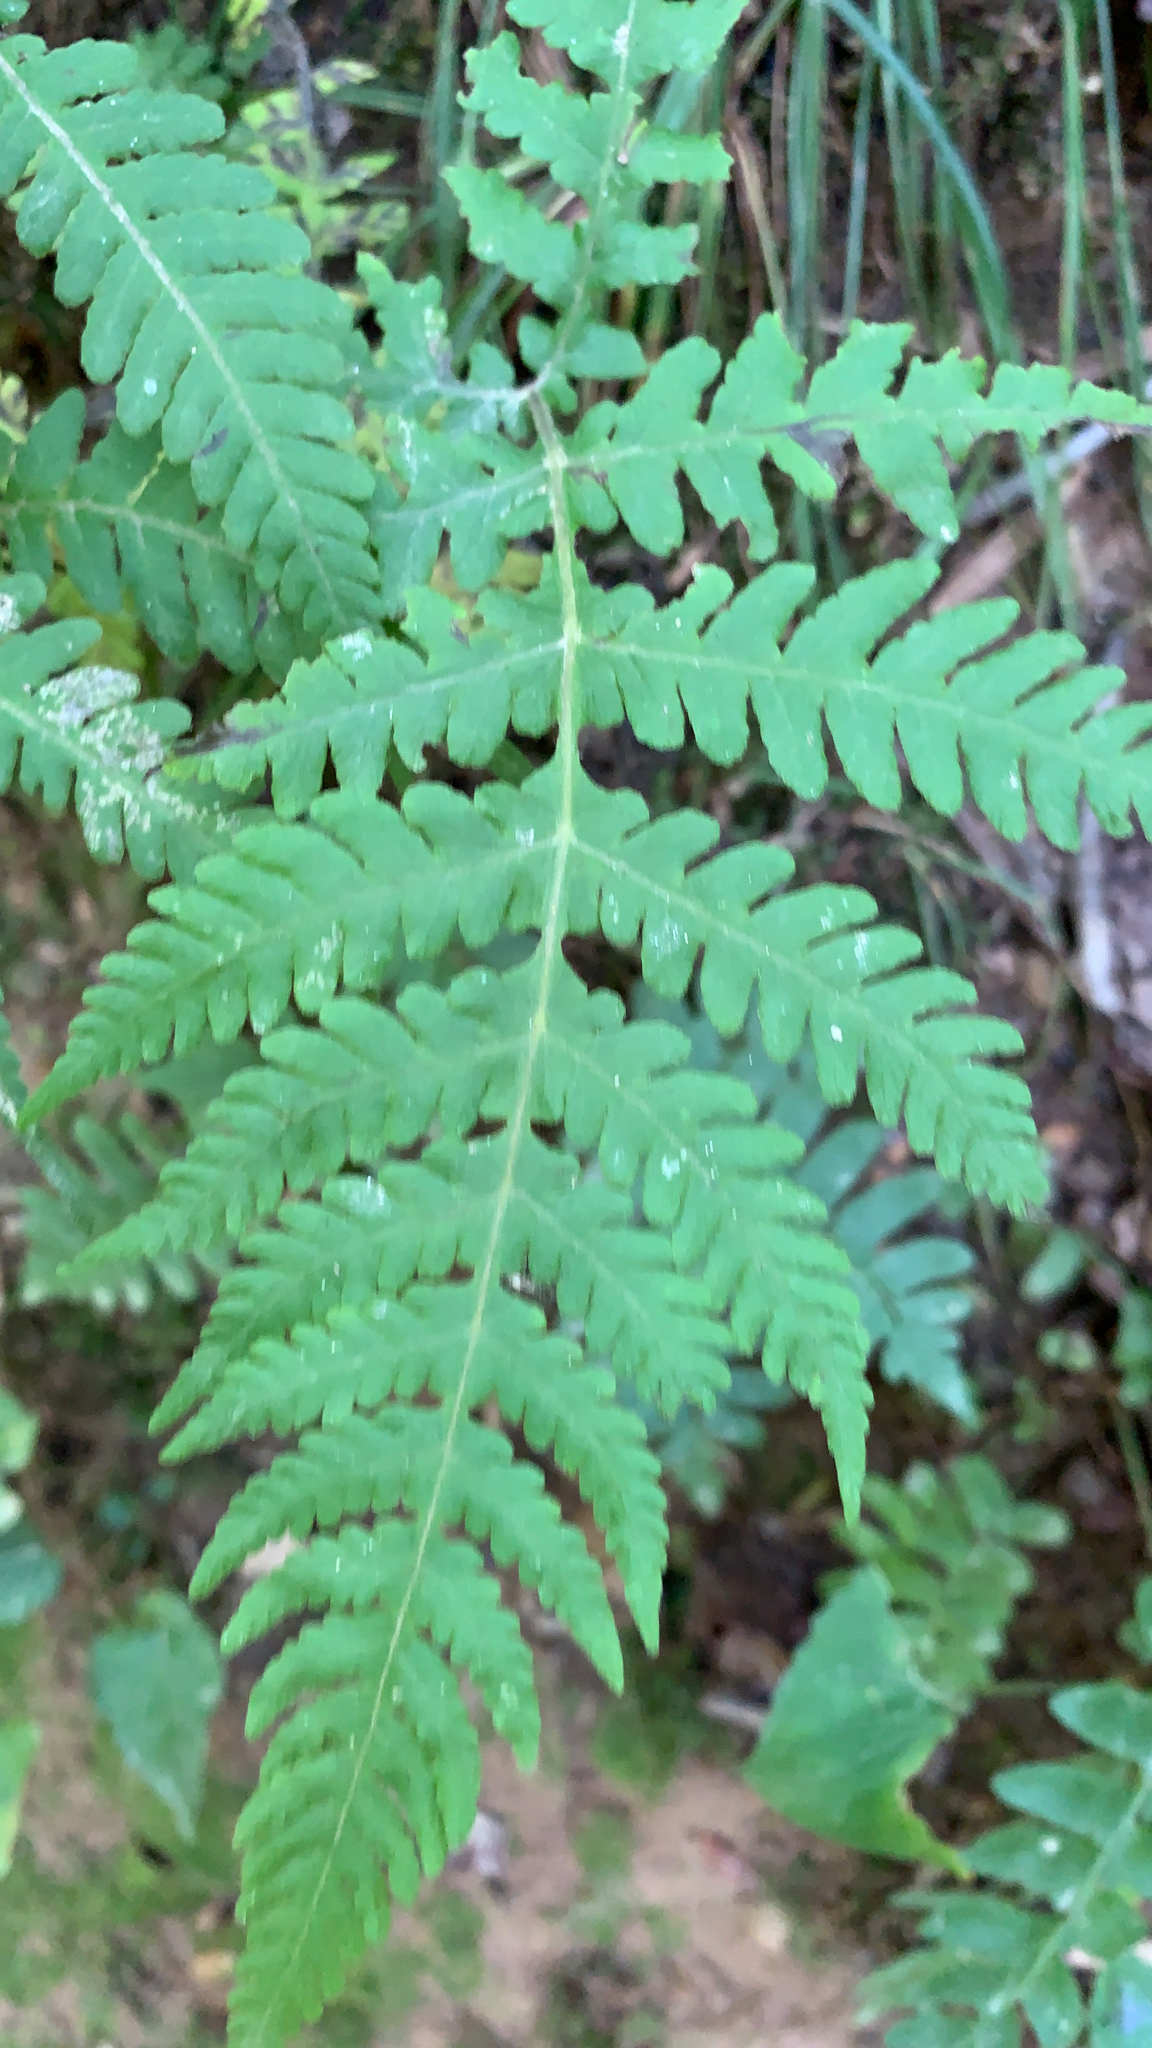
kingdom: Plantae
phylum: Tracheophyta
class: Polypodiopsida
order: Polypodiales
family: Thelypteridaceae
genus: Phegopteris
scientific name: Phegopteris hexagonoptera
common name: Broad beech fern
